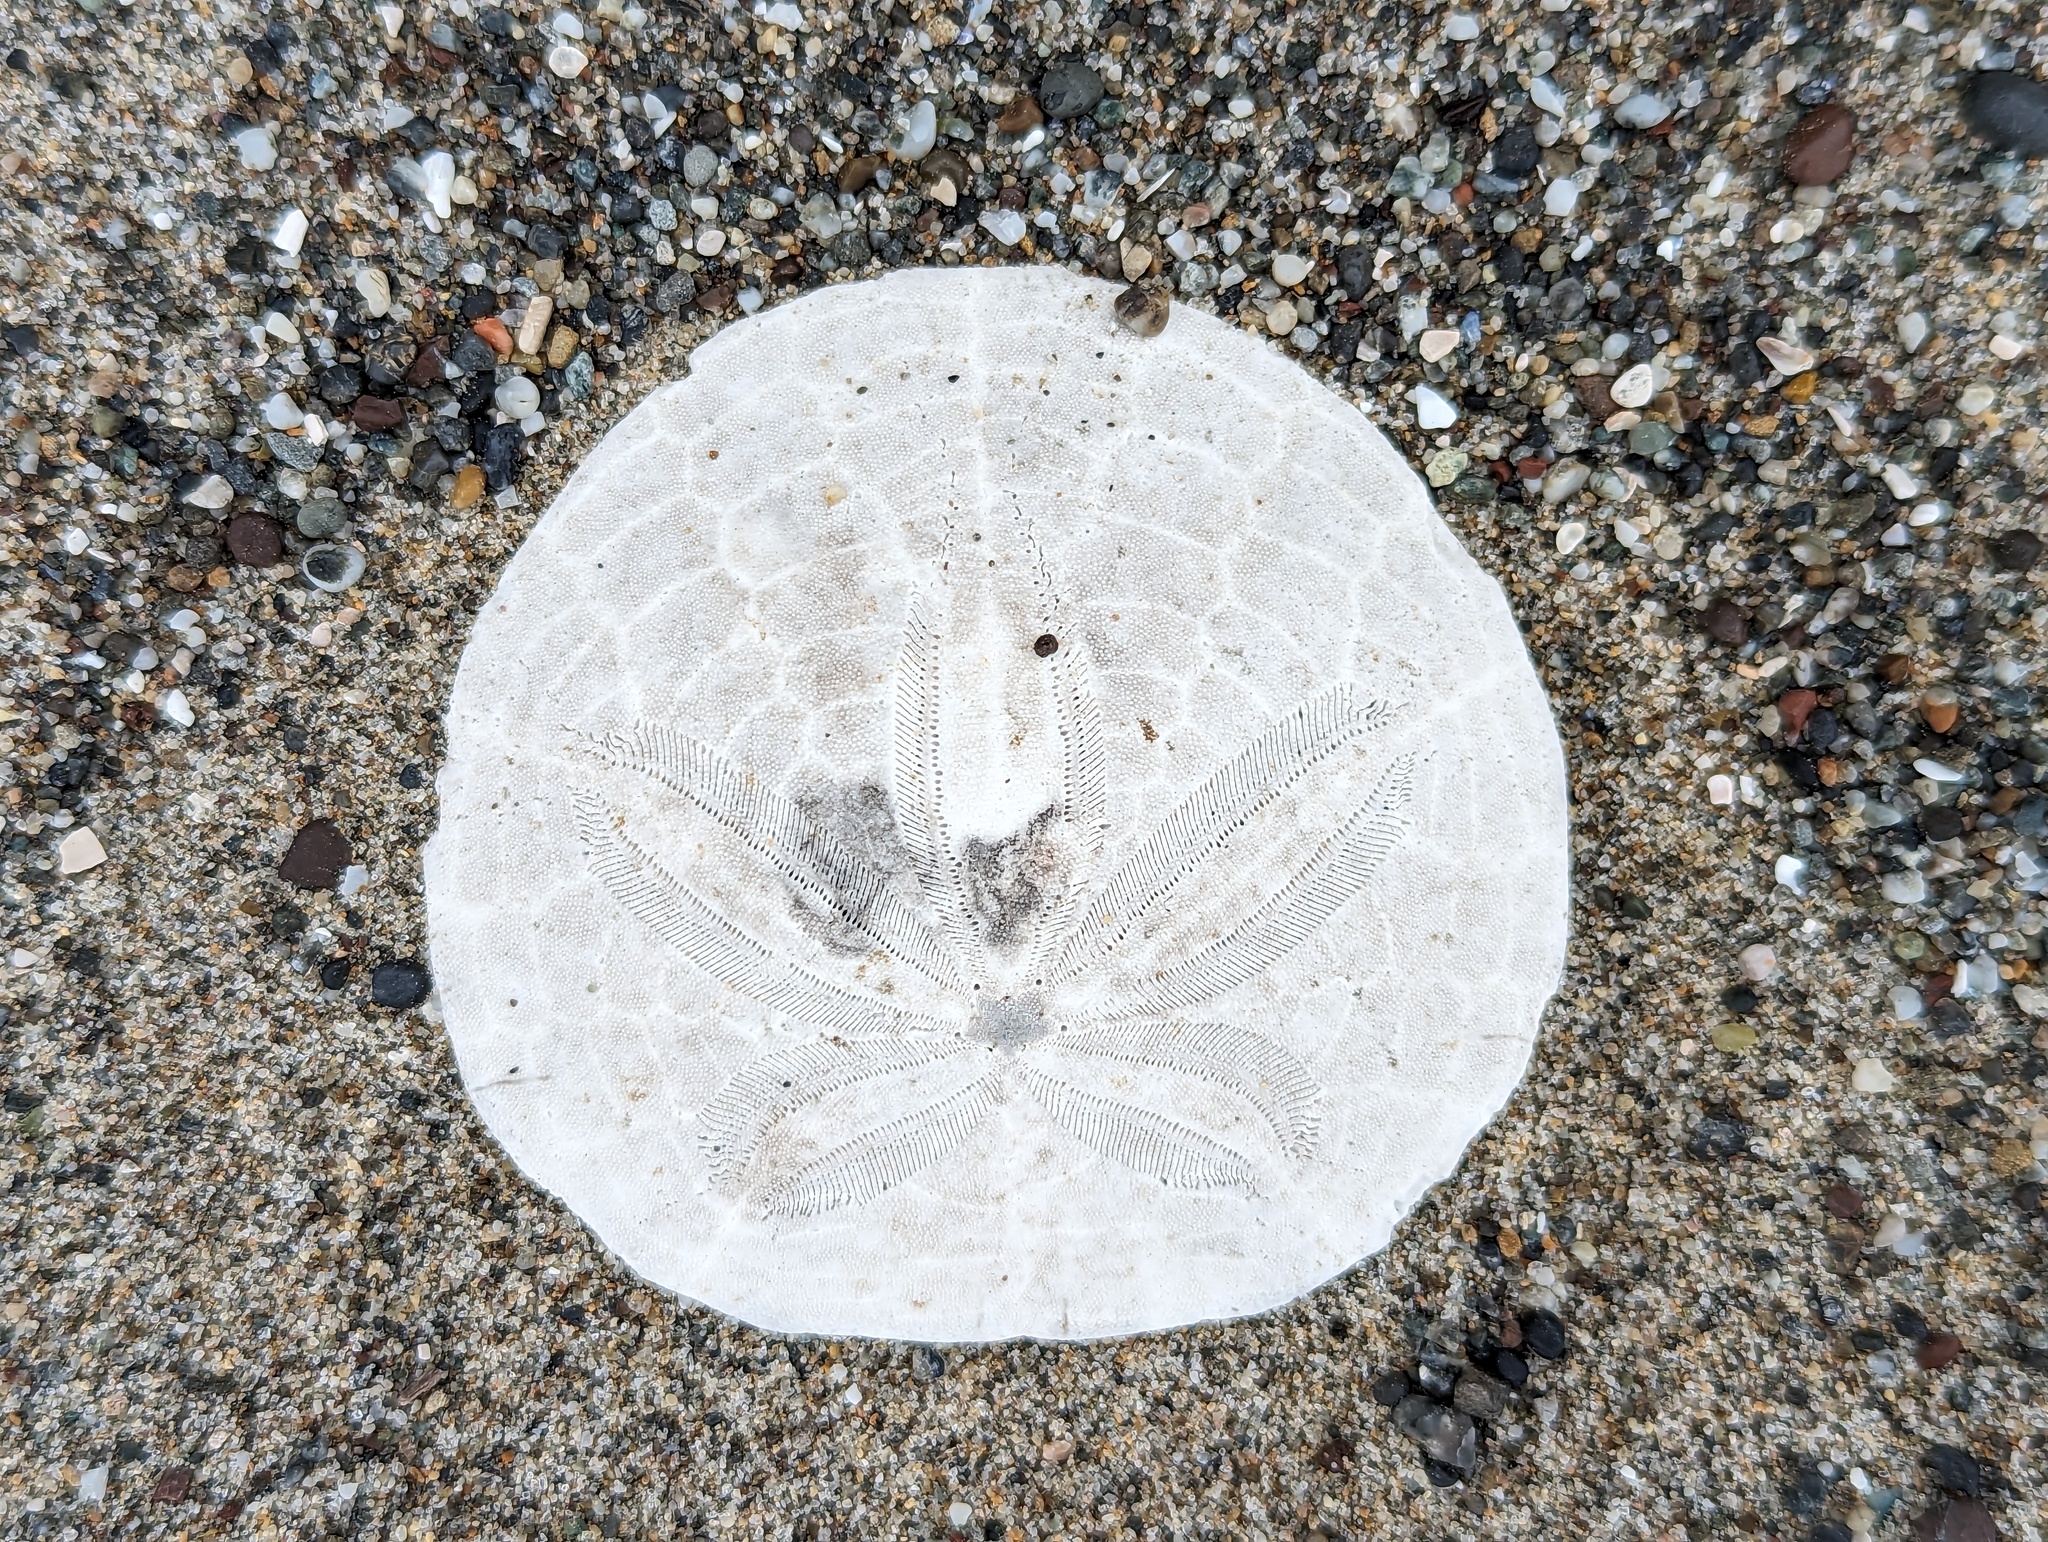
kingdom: Animalia
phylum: Echinodermata
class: Echinoidea
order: Echinolampadacea
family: Dendrasteridae
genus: Dendraster
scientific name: Dendraster excentricus
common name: Eccentric sand dollar sea urchin
